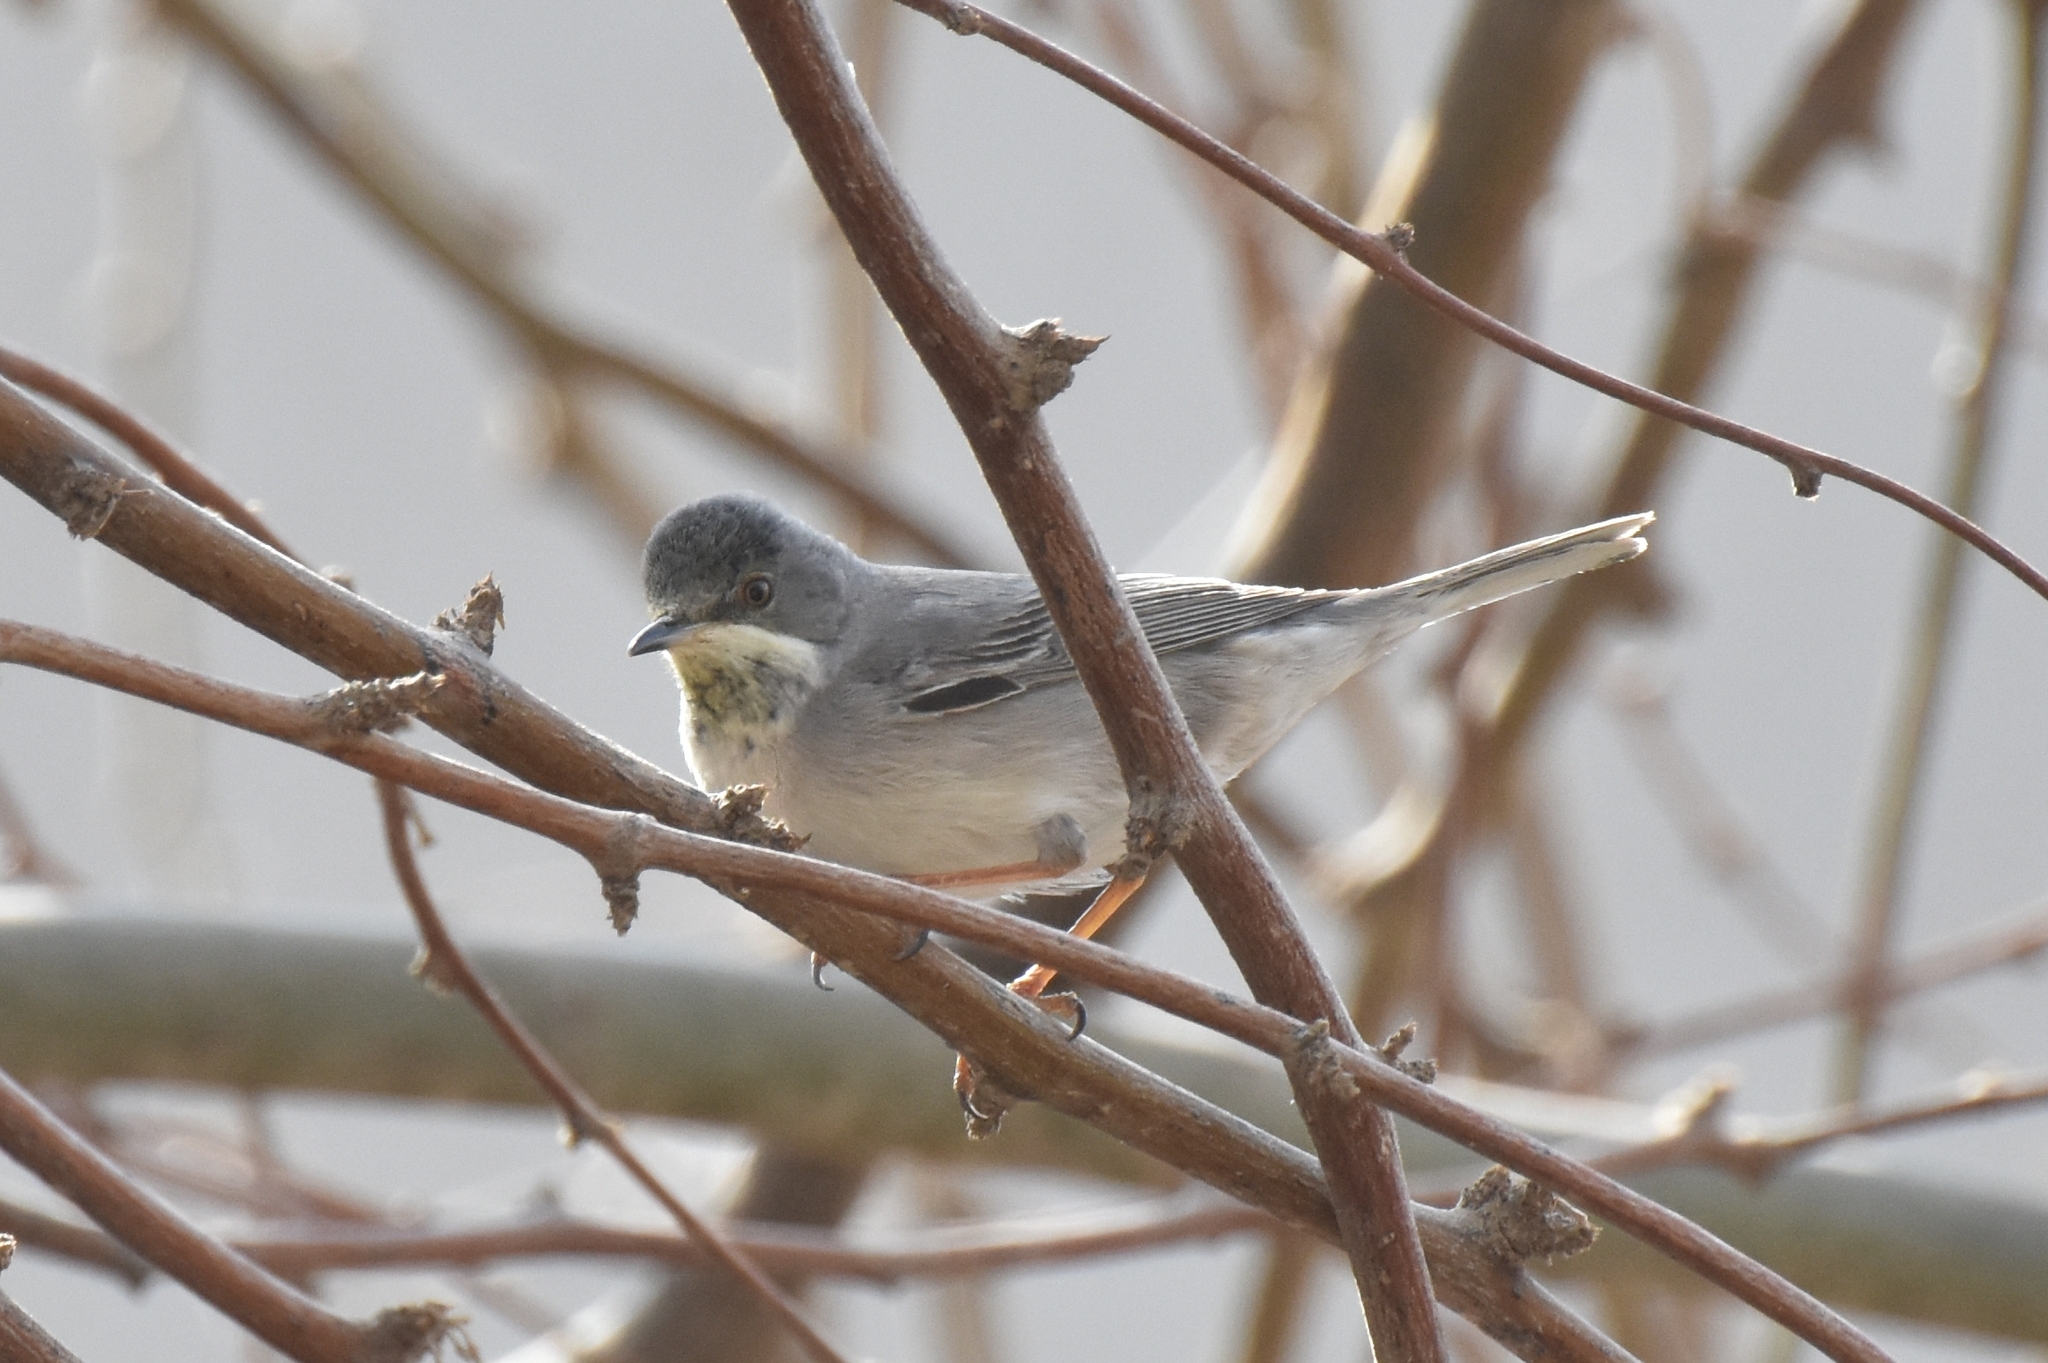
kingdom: Animalia
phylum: Chordata
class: Aves
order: Passeriformes
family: Sylviidae
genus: Sylvia
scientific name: Sylvia ruppeli
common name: Rüppell's warbler
